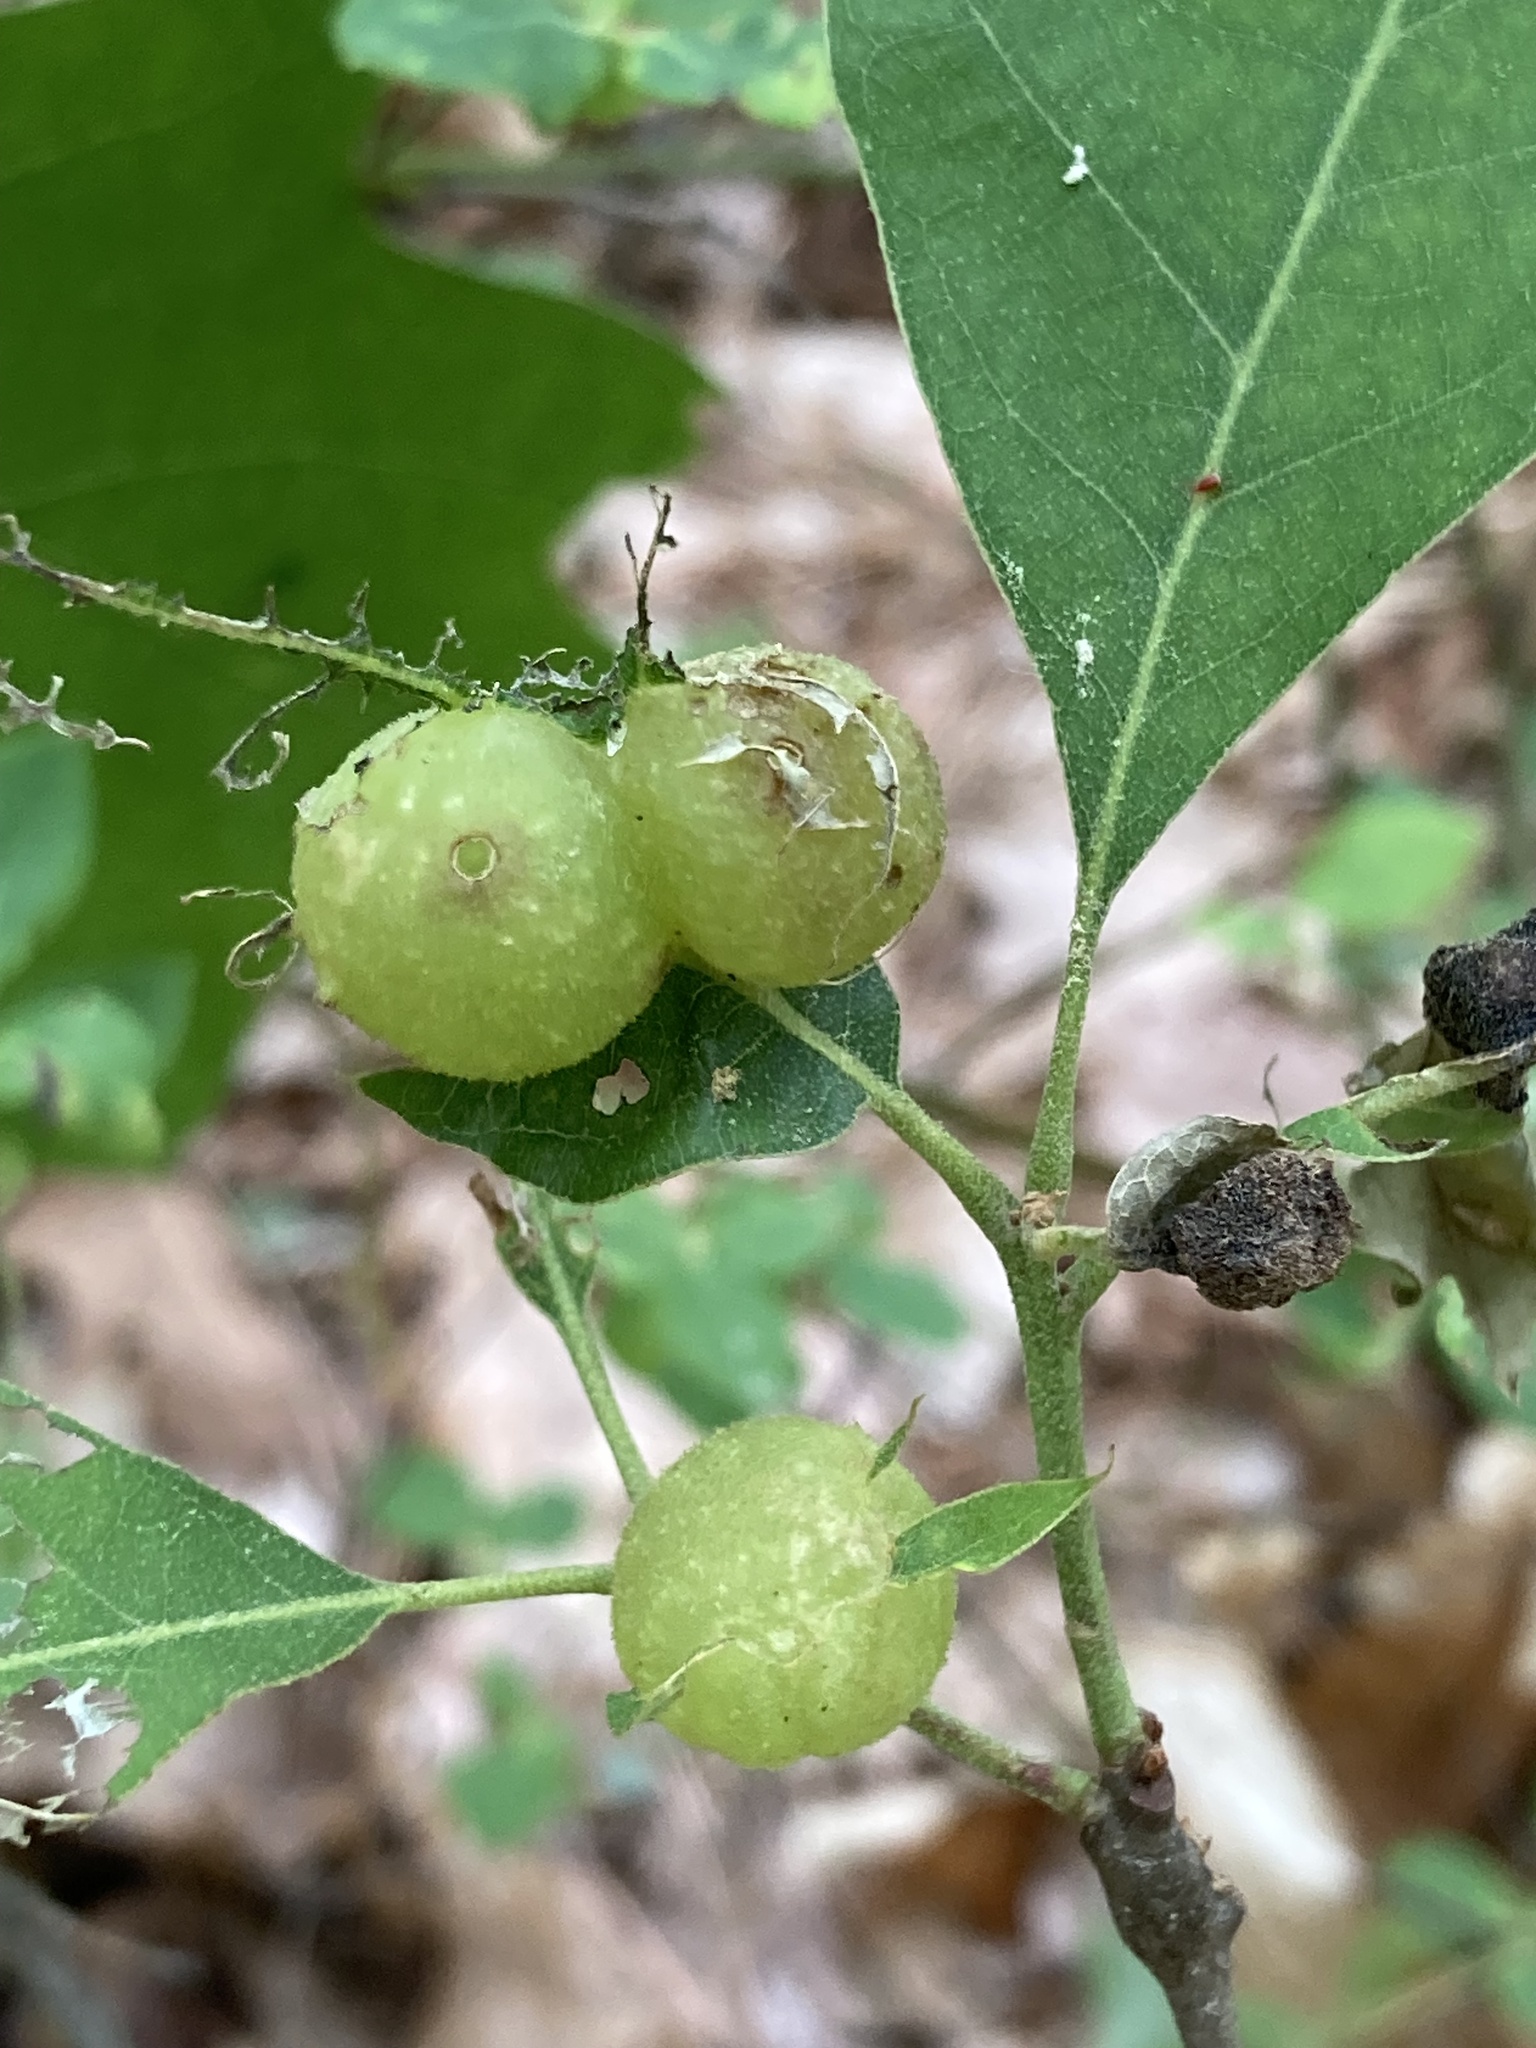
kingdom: Animalia
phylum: Arthropoda
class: Insecta
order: Hymenoptera
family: Cynipidae
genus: Dryocosmus
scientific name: Dryocosmus quercuspalustris
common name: Succulent oak gall wasp
